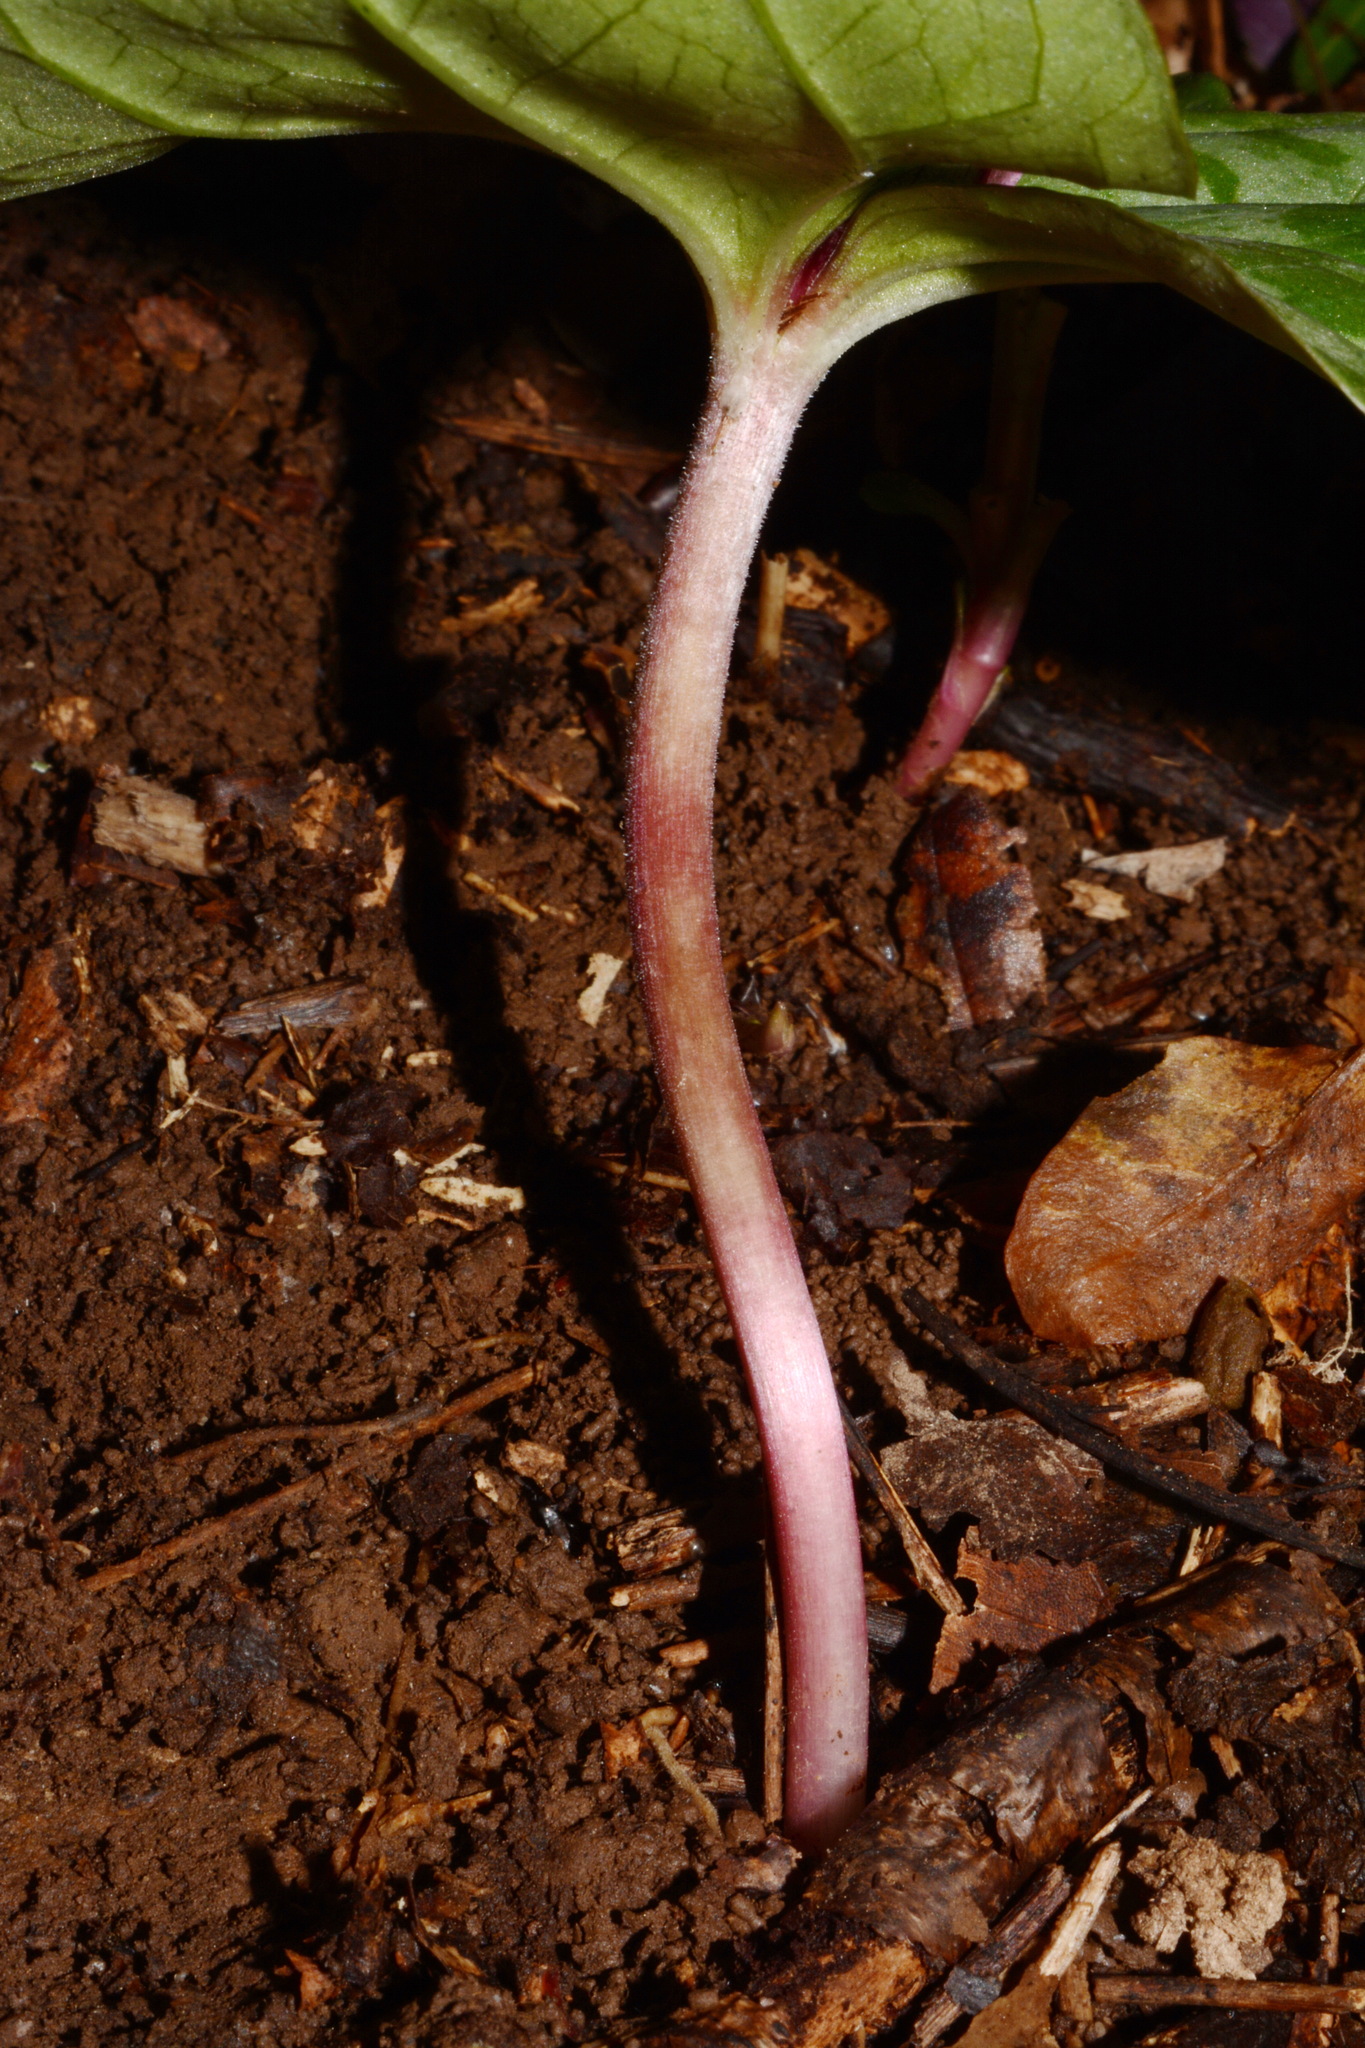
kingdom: Plantae
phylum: Tracheophyta
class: Liliopsida
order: Liliales
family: Melanthiaceae
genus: Trillium
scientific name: Trillium decumbens
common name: Decumbent trillium
